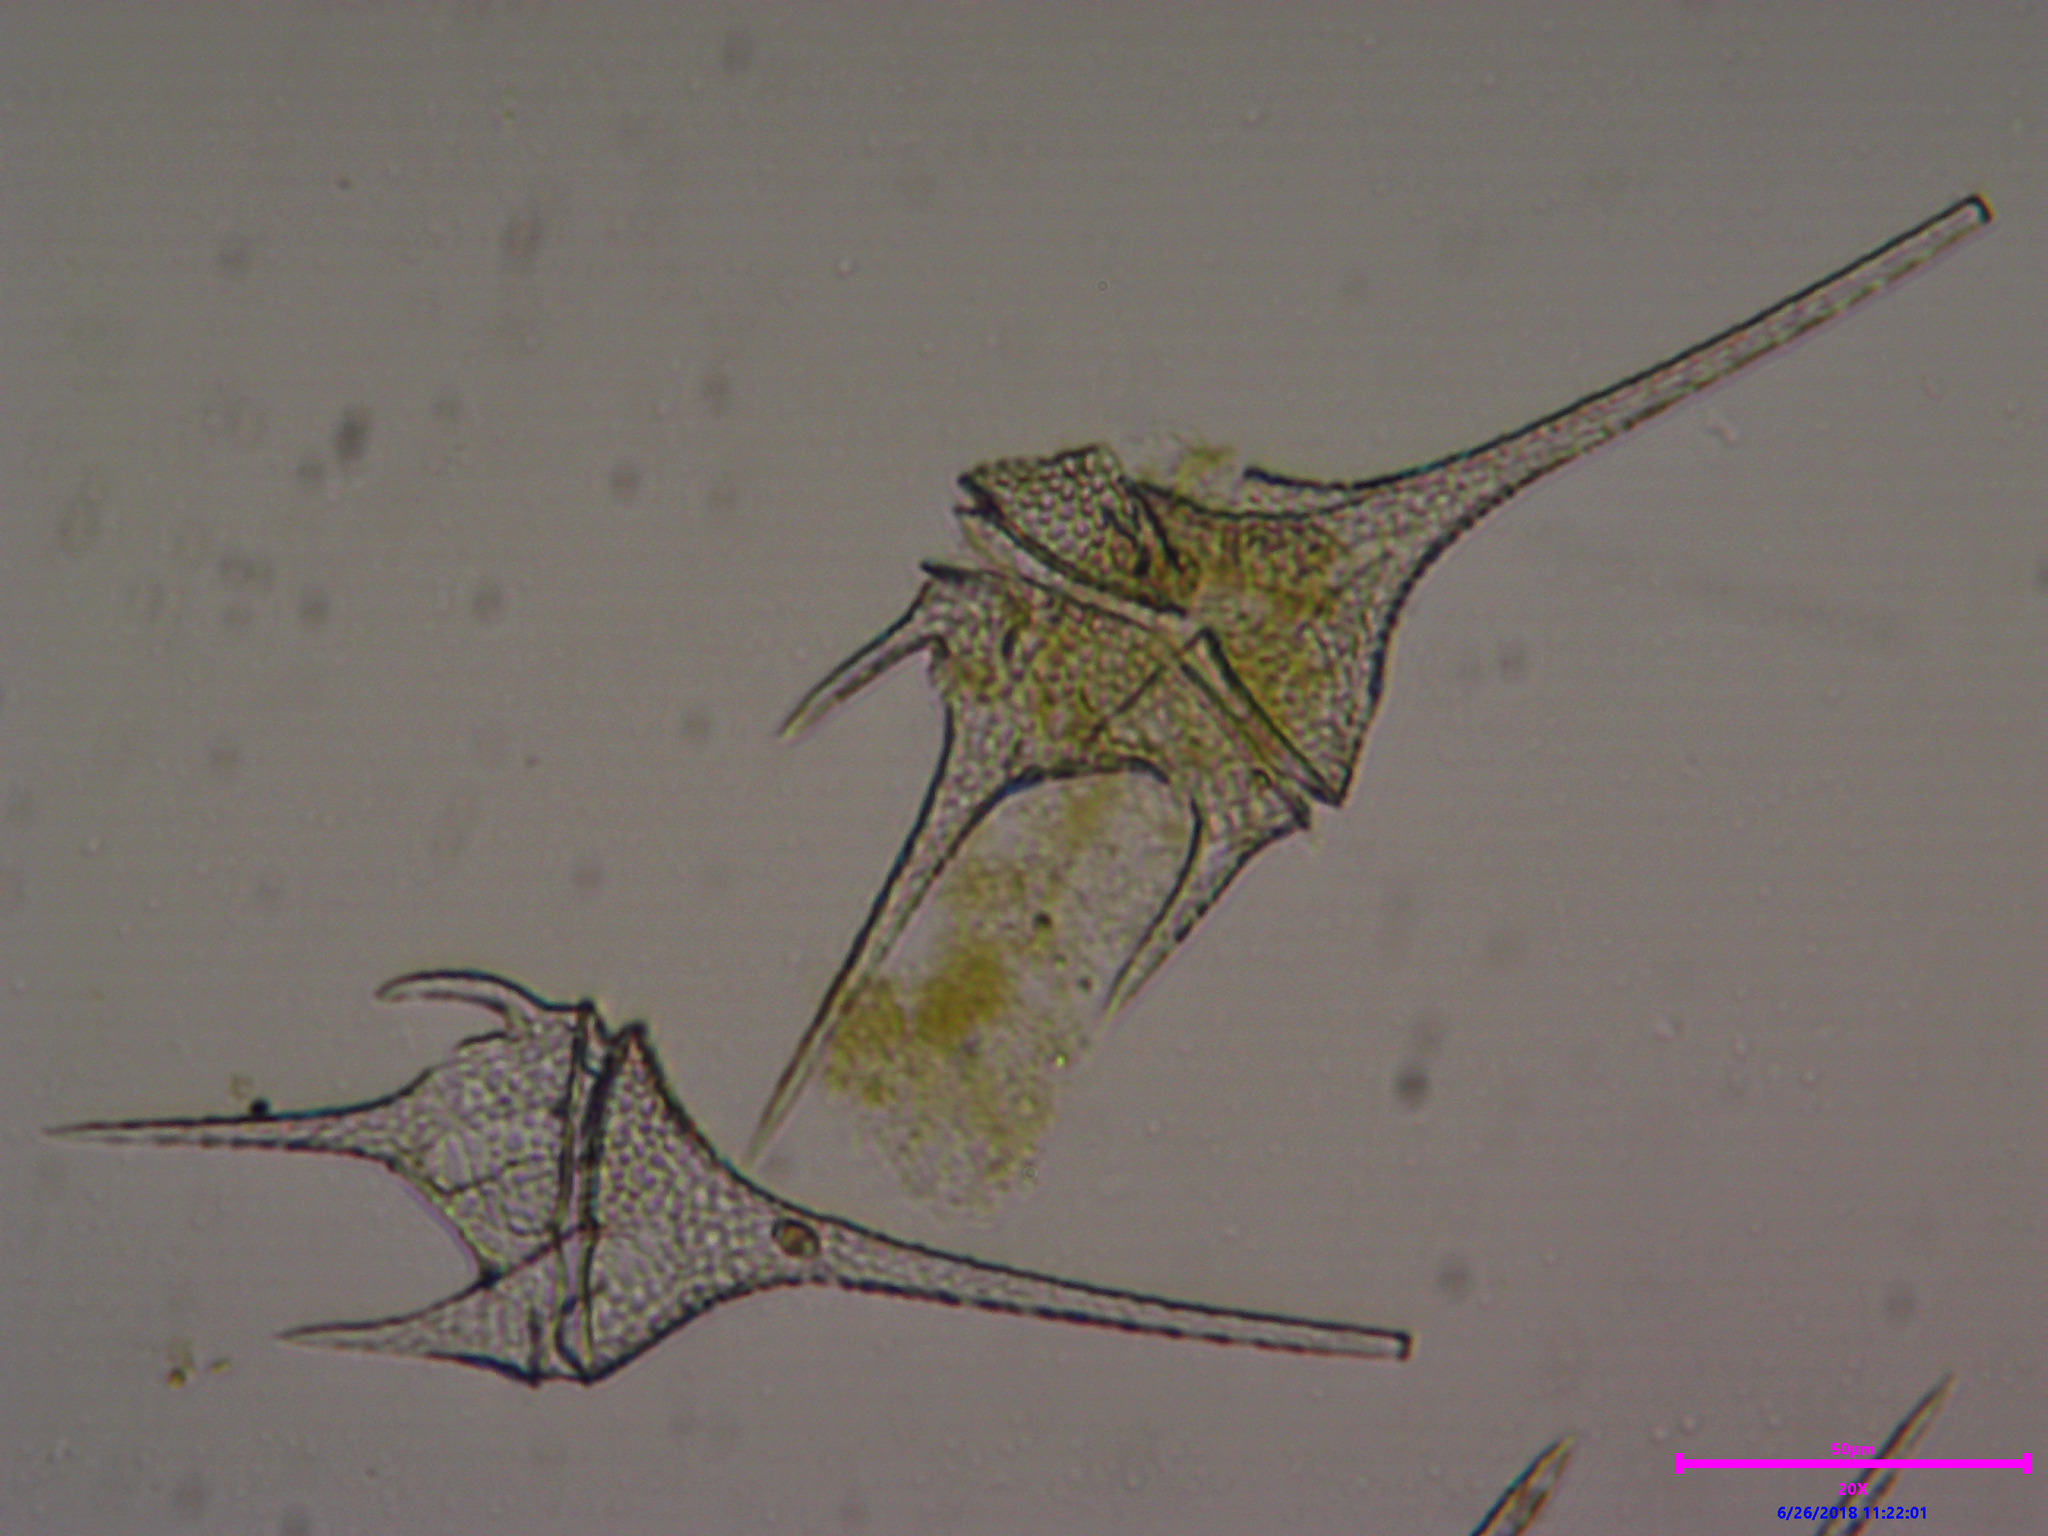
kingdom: Chromista
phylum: Myzozoa
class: Dinophyceae
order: Gonyaulacales
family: Ceratiaceae
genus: Ceratium
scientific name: Ceratium hirundinella
